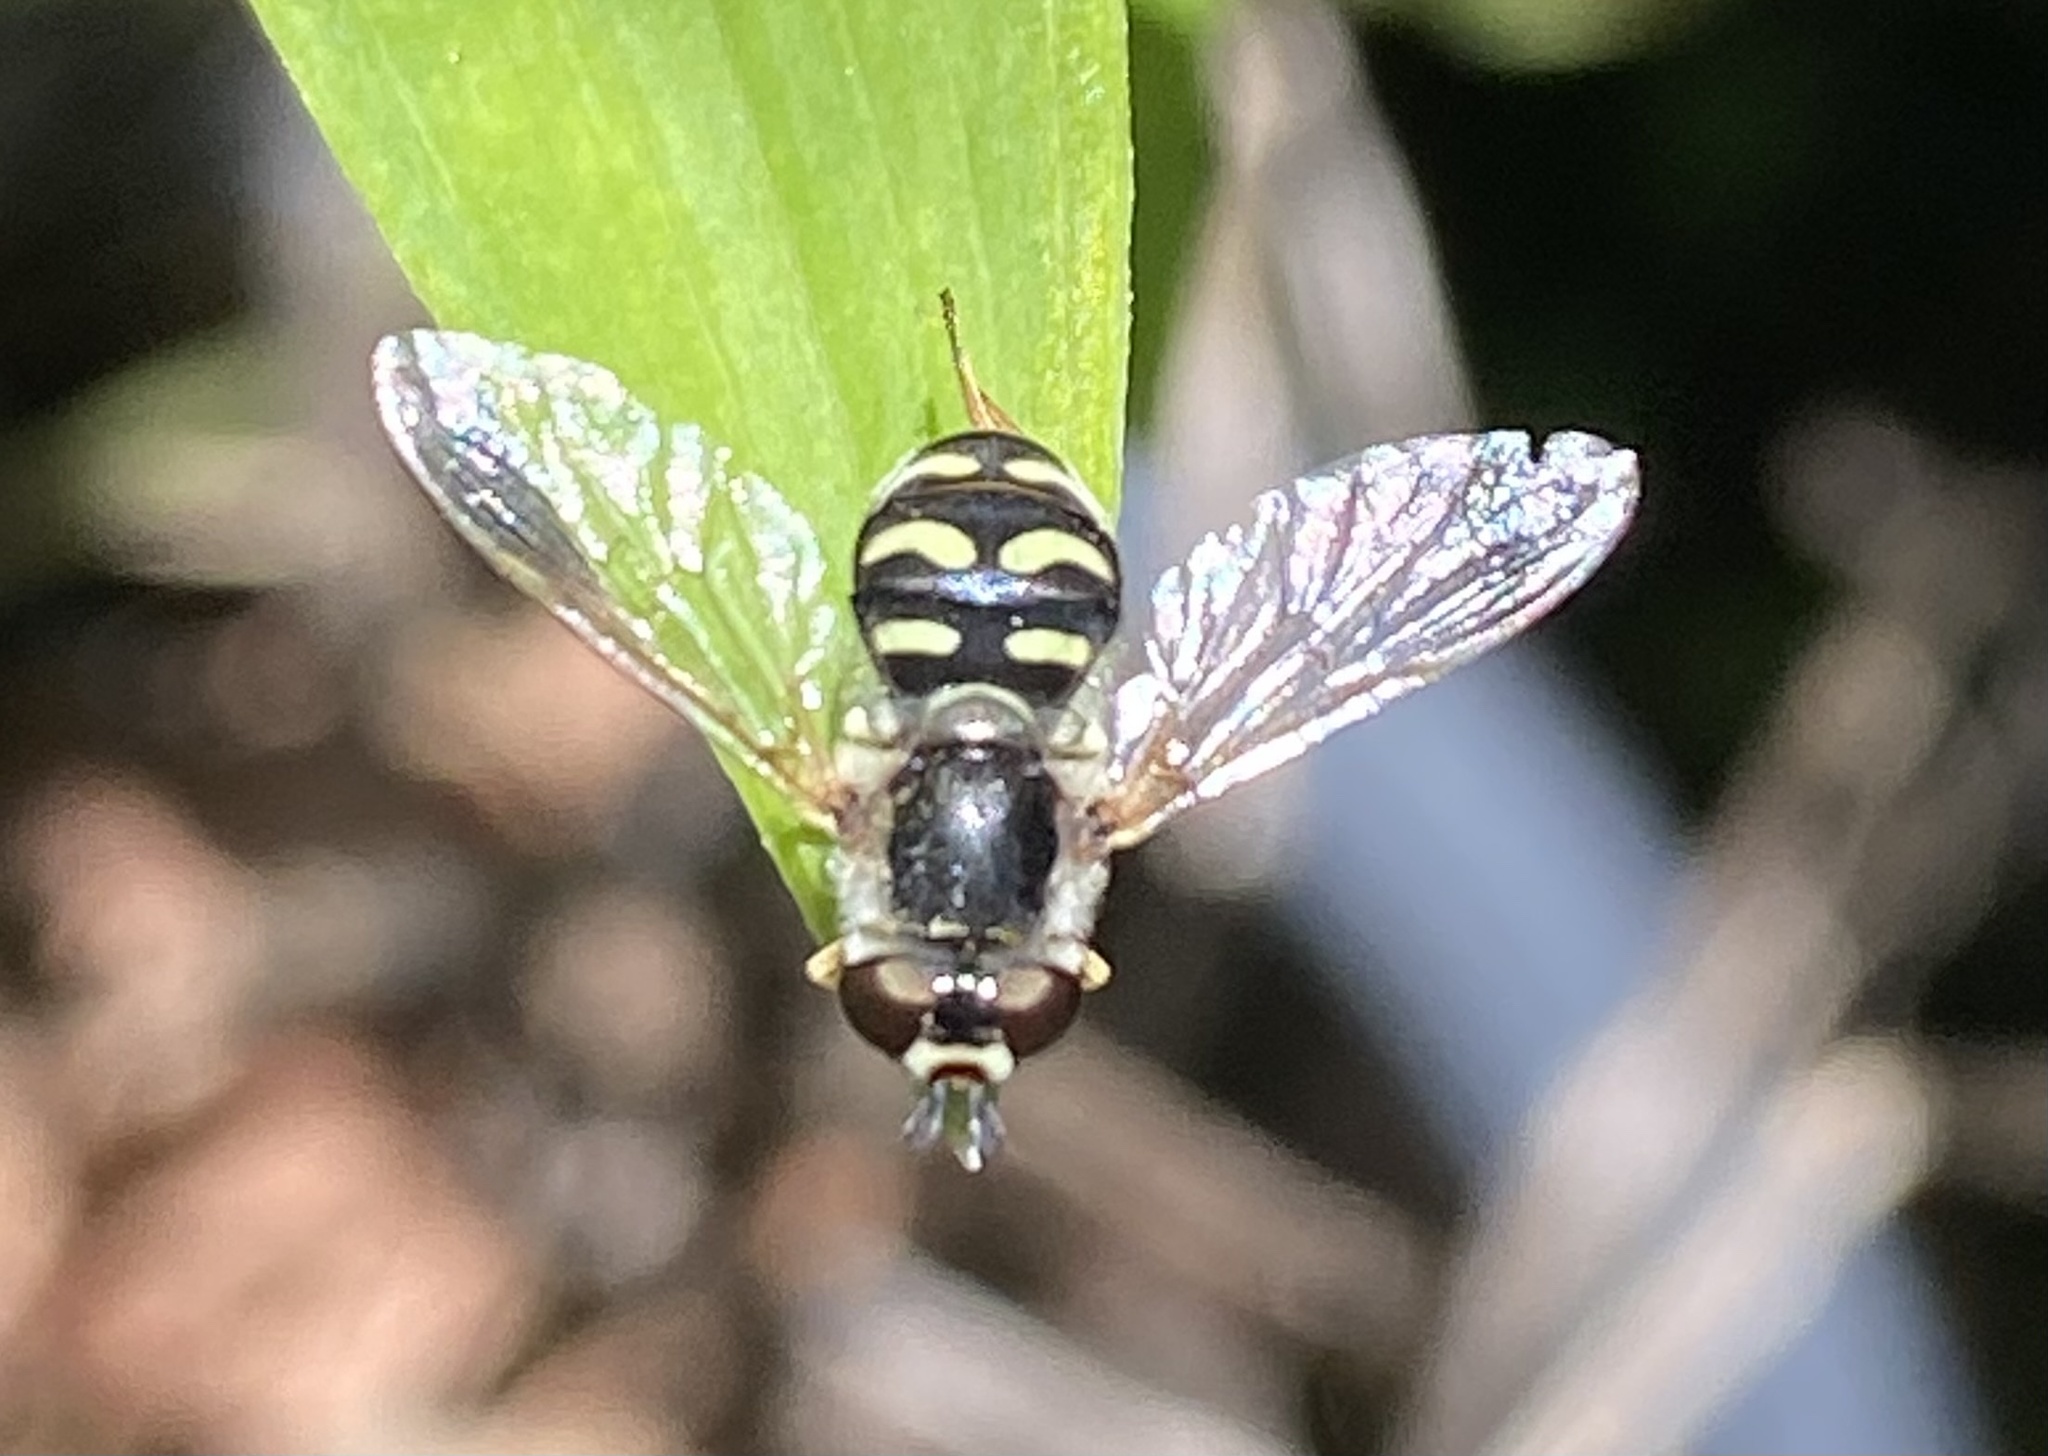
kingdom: Animalia
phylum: Arthropoda
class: Insecta
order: Diptera
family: Syrphidae
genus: Eupeodes
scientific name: Eupeodes volucris
